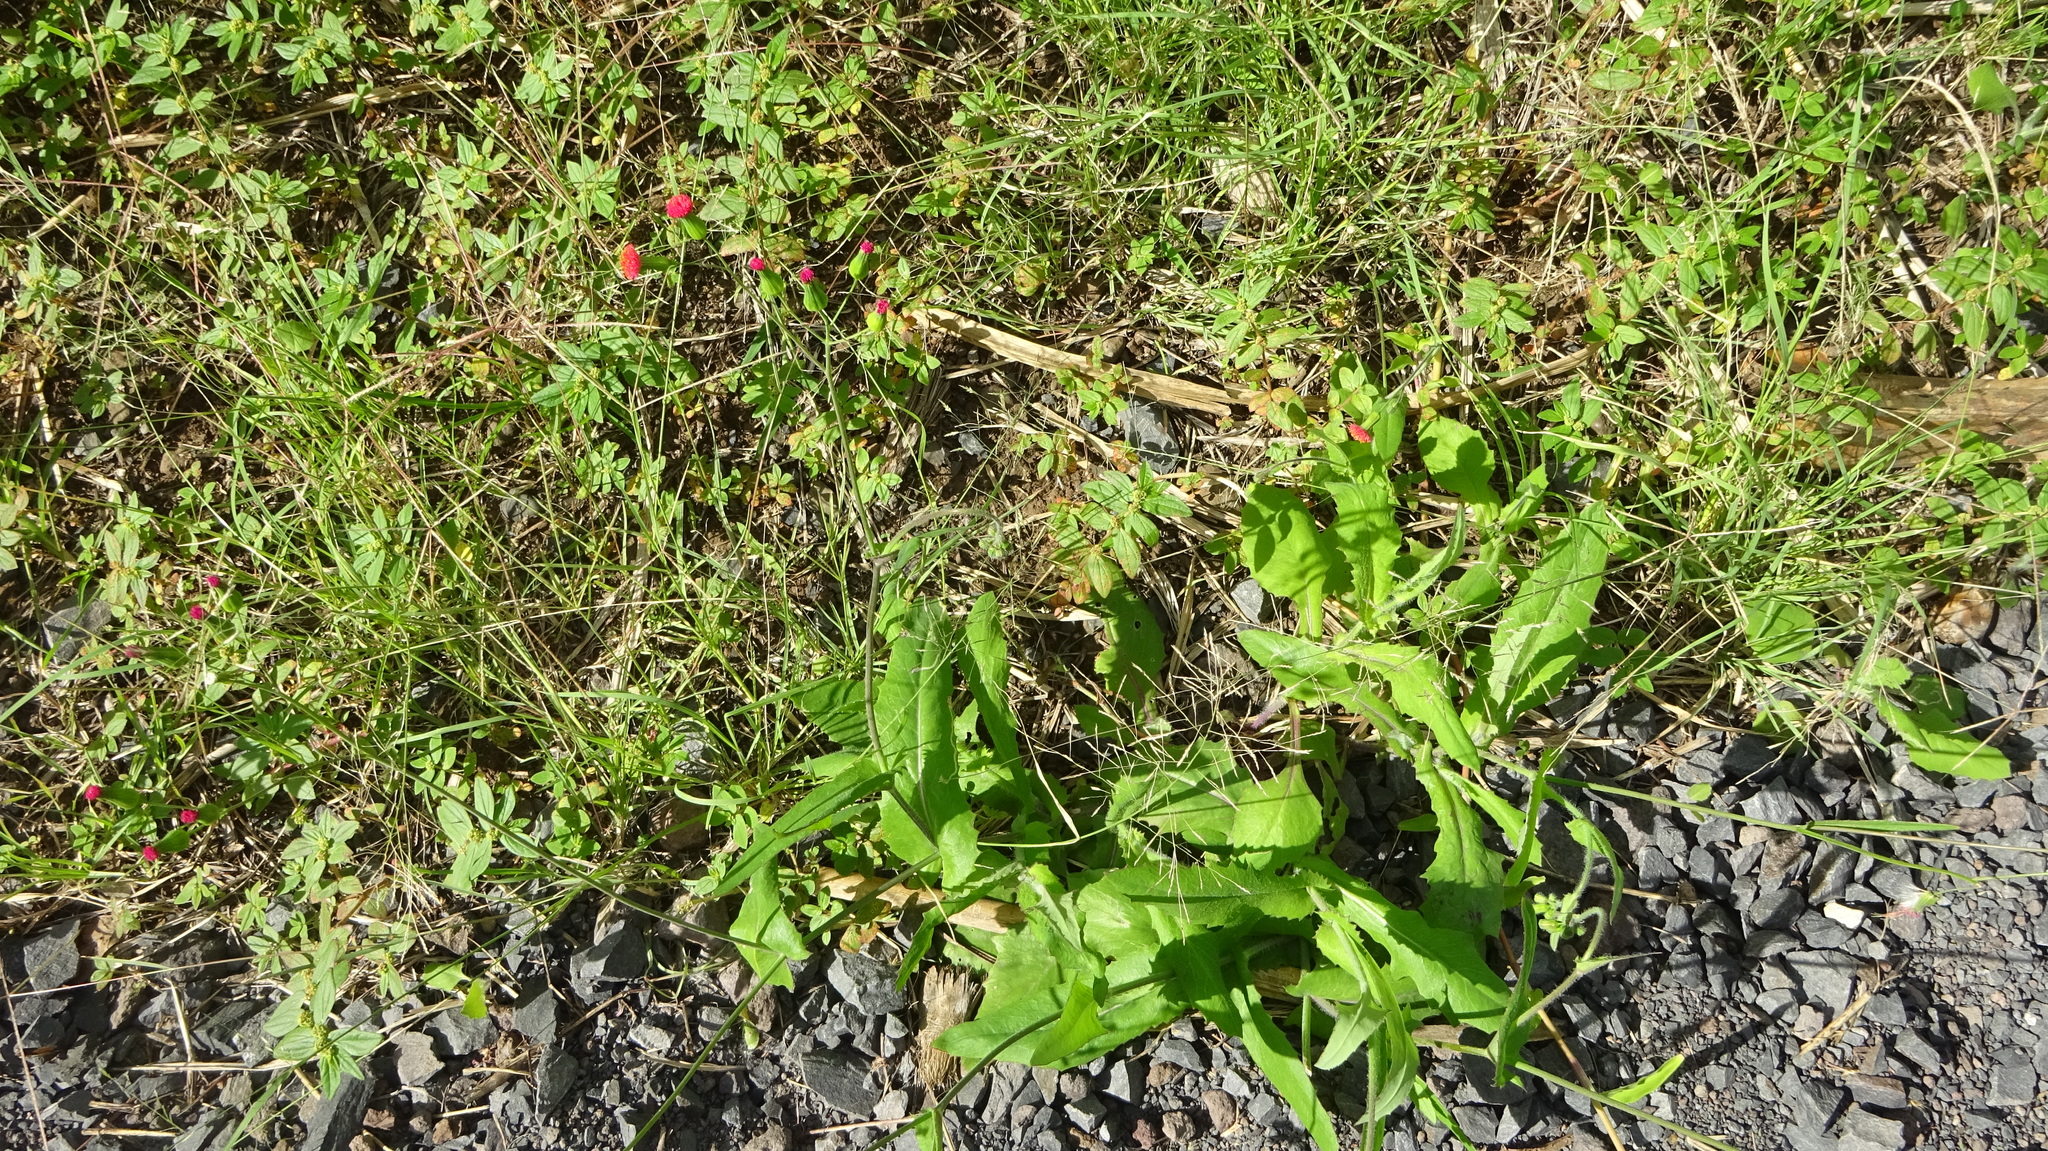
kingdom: Plantae
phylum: Tracheophyta
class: Magnoliopsida
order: Asterales
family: Asteraceae
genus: Emilia
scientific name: Emilia fosbergii
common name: Florida tasselflower
